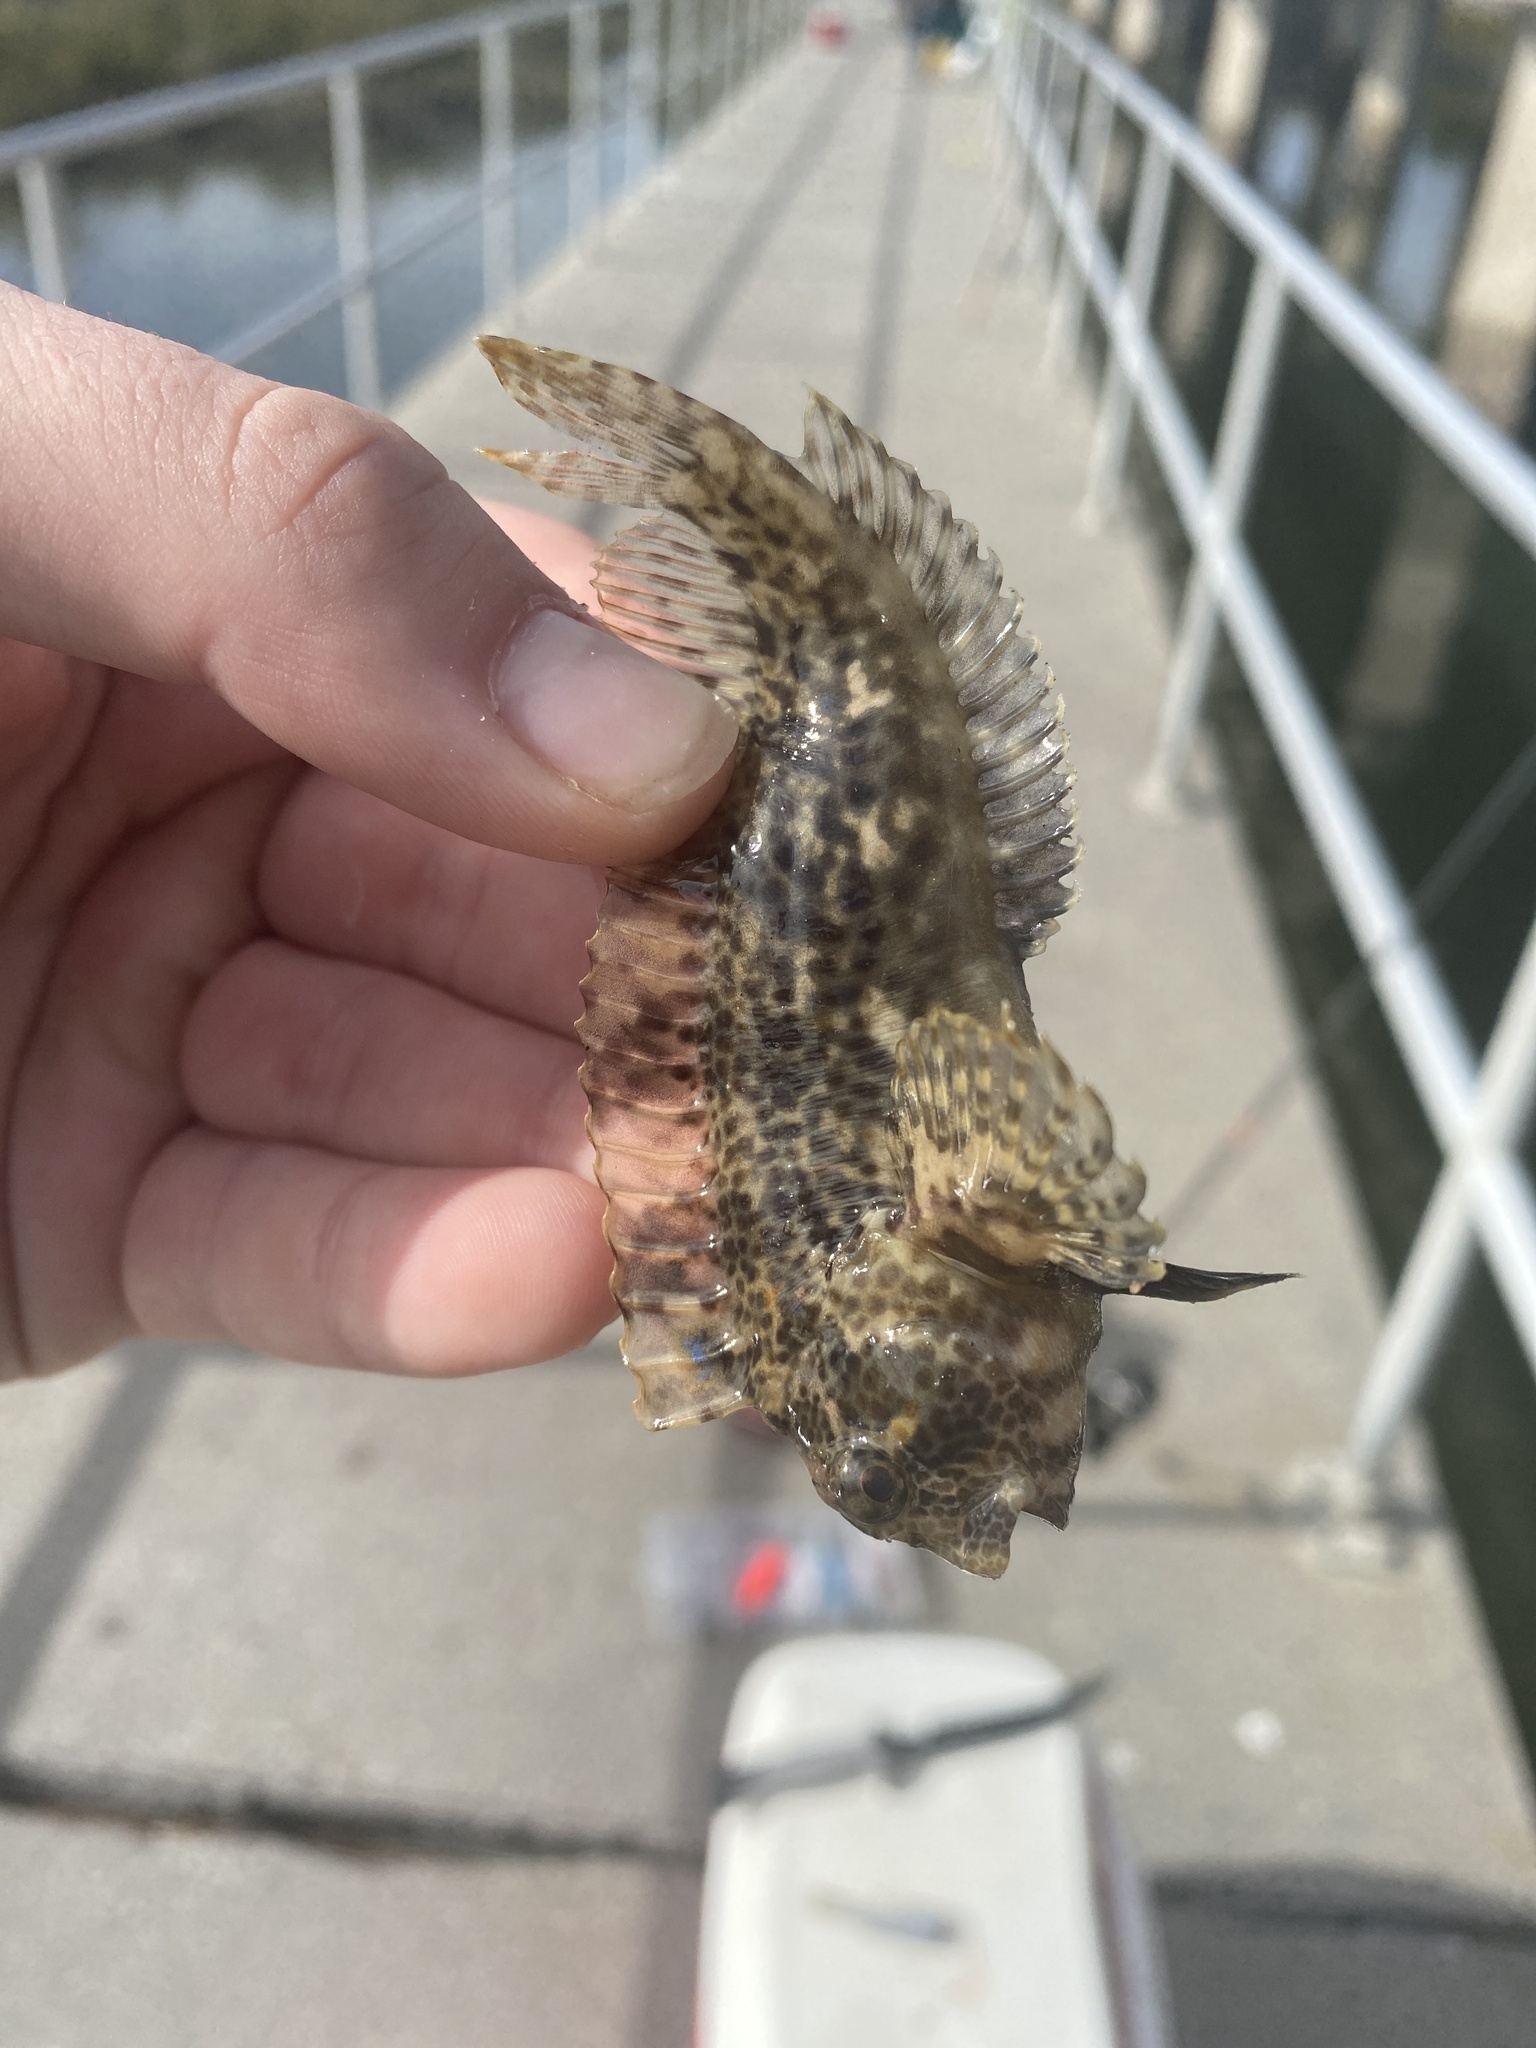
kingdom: Animalia
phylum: Chordata
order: Perciformes
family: Blenniidae
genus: Hypsoblennius
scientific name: Hypsoblennius hentz
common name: Feather blenny
